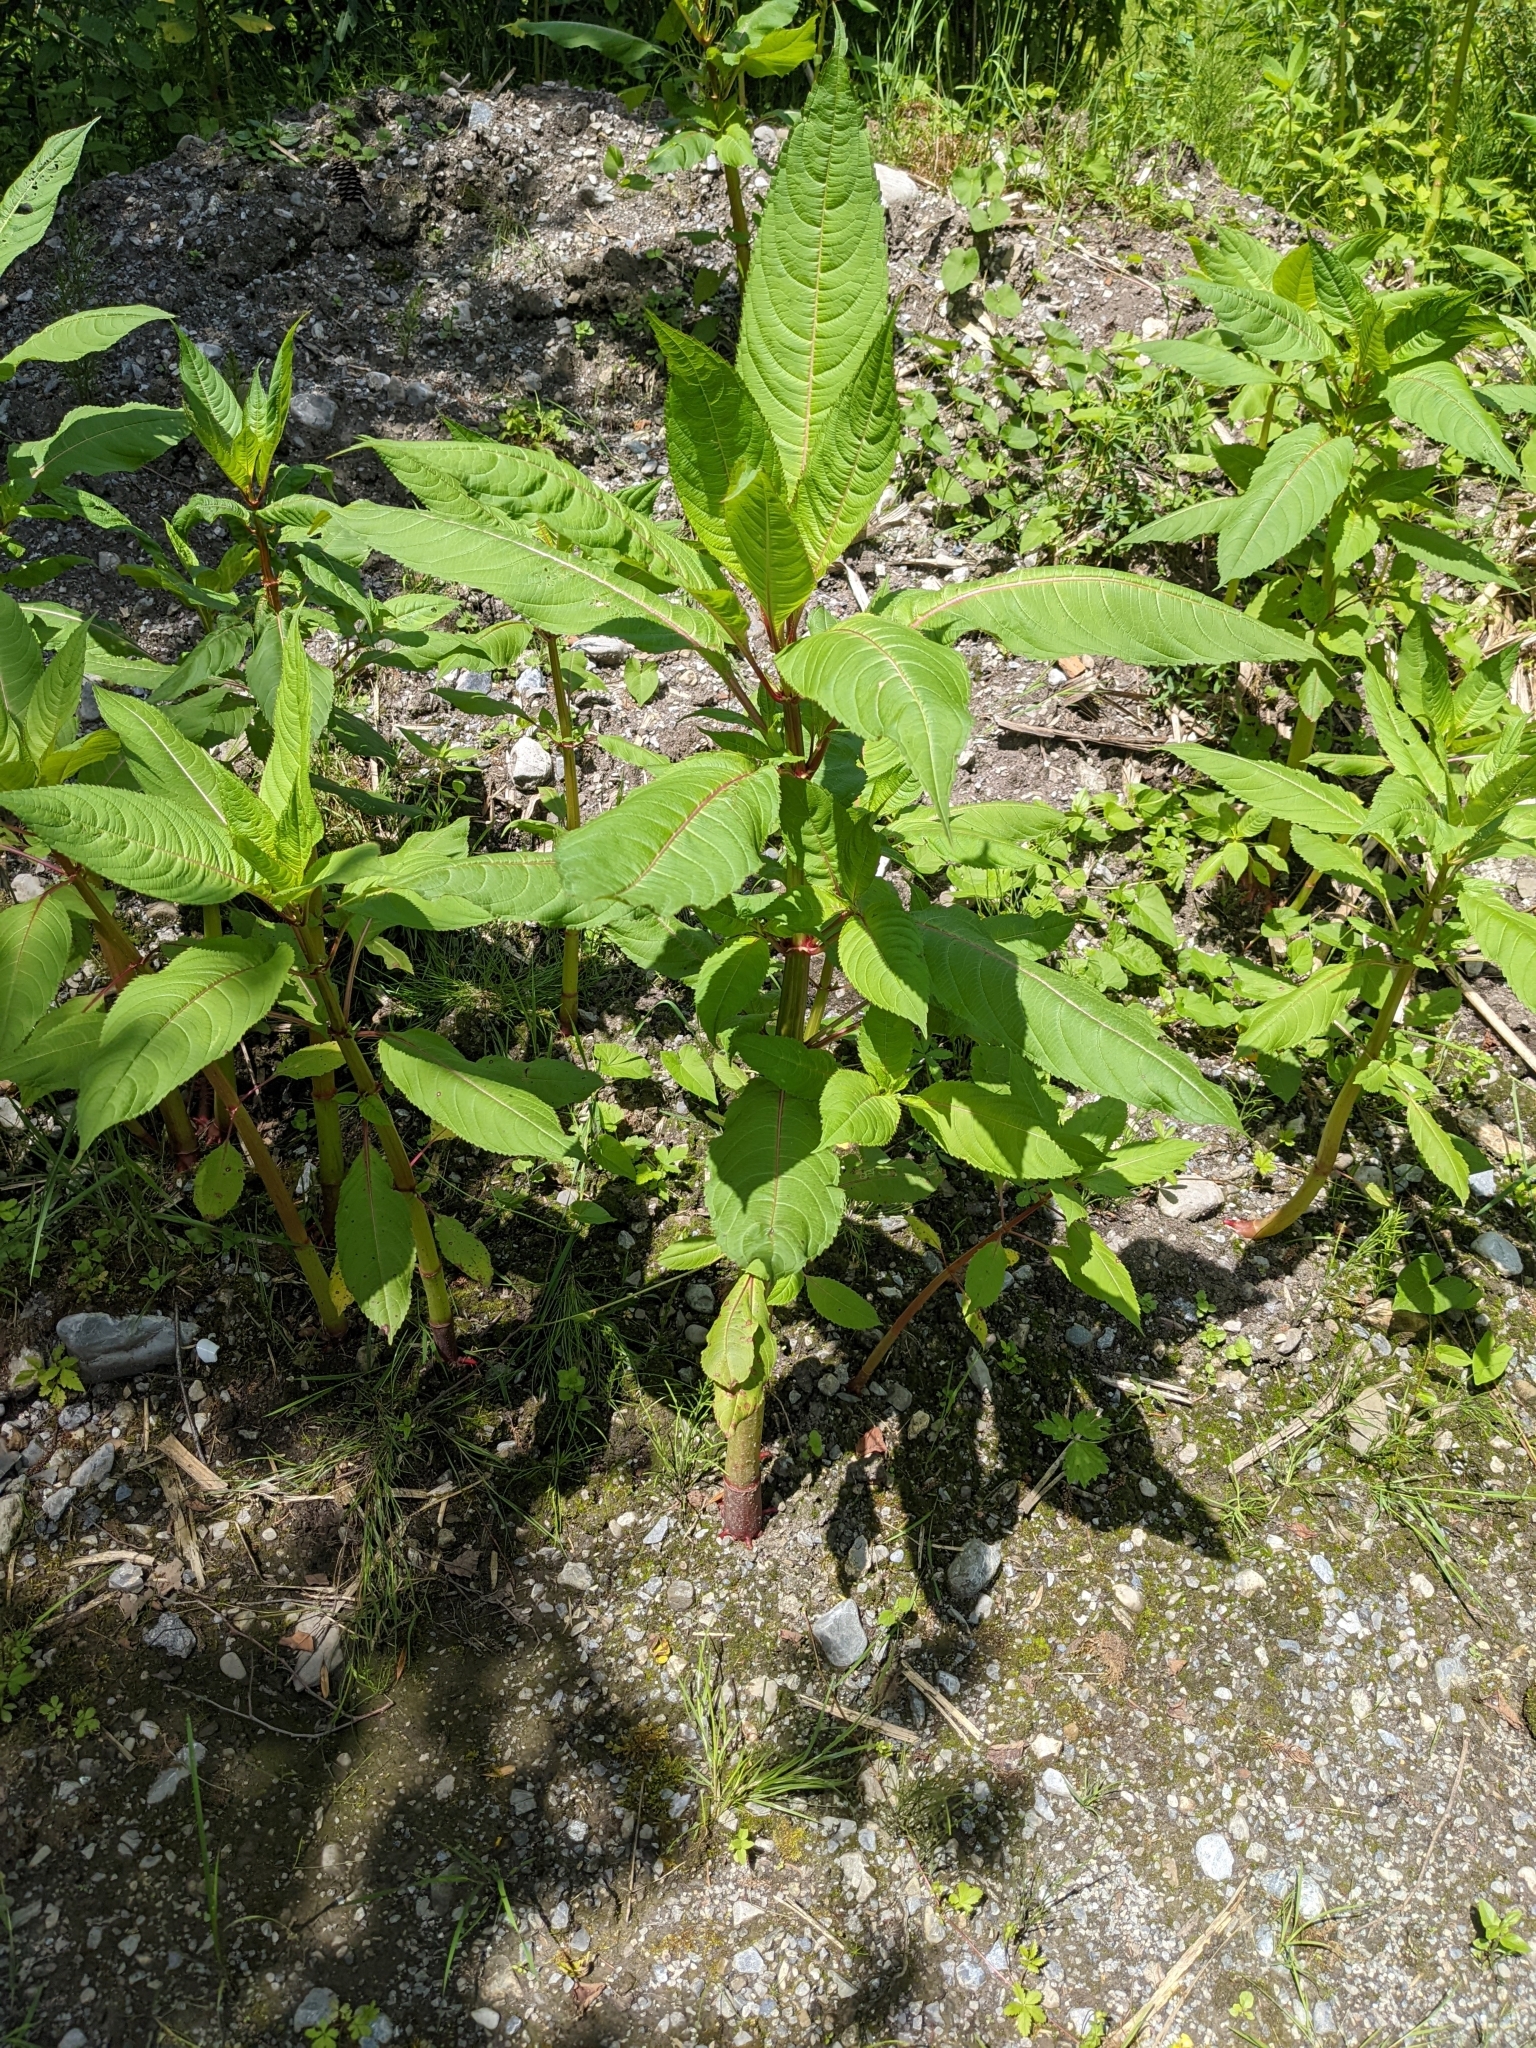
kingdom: Plantae
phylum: Tracheophyta
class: Magnoliopsida
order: Ericales
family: Balsaminaceae
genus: Impatiens
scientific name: Impatiens glandulifera
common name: Himalayan balsam
